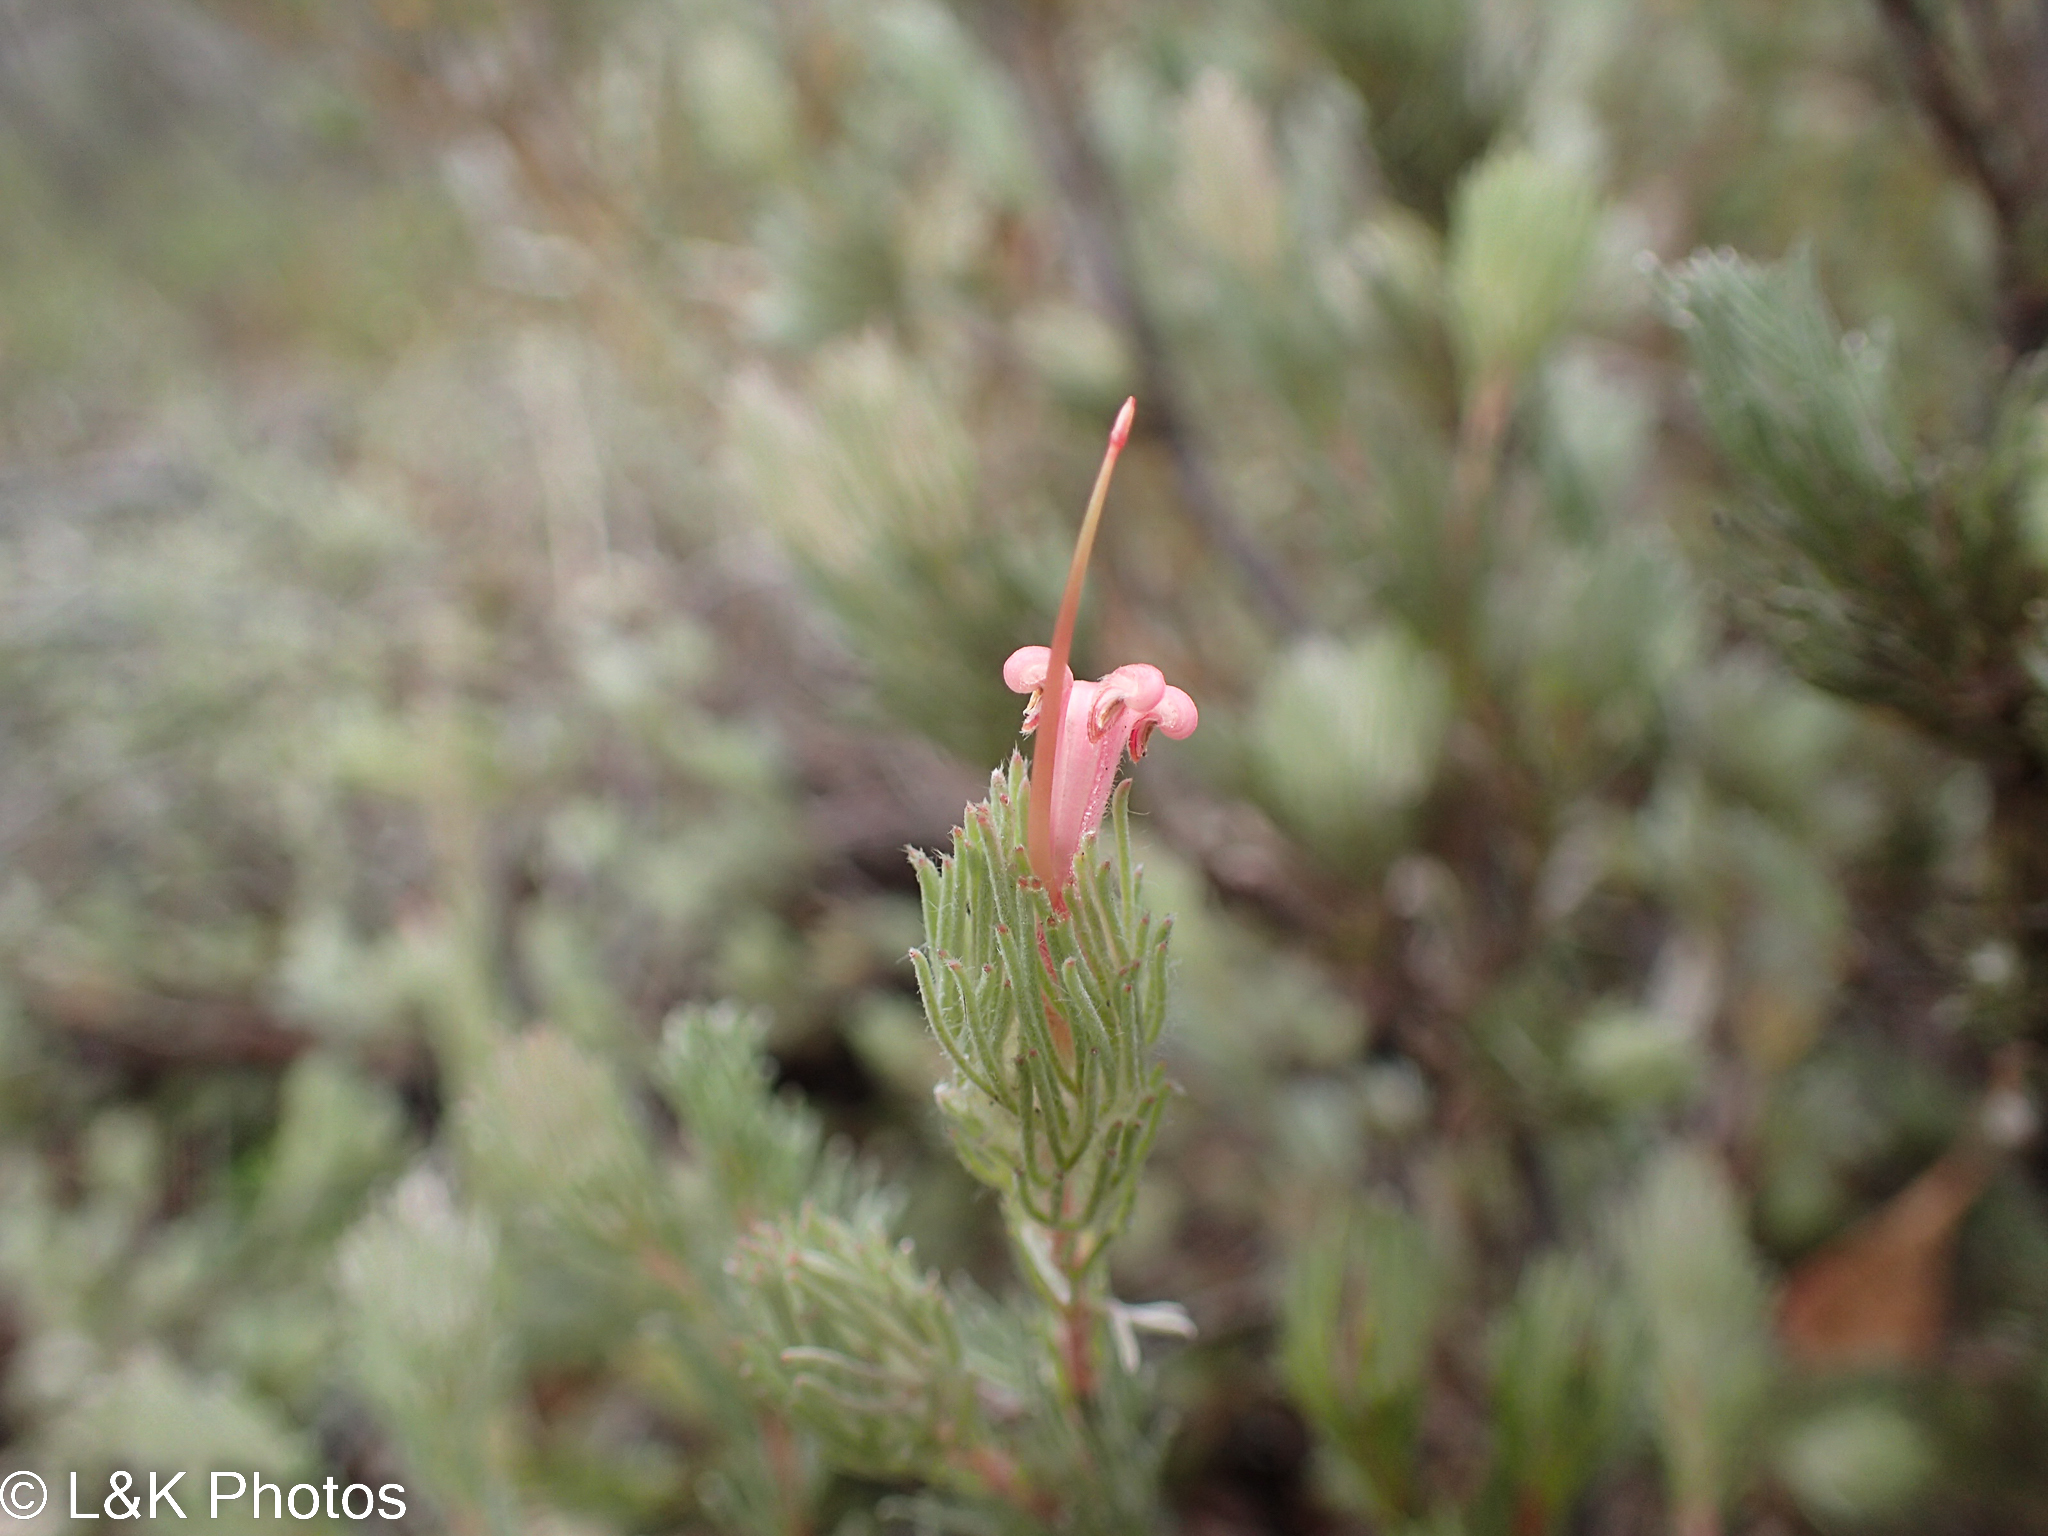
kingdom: Plantae
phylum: Tracheophyta
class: Magnoliopsida
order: Proteales
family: Proteaceae
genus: Adenanthos
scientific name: Adenanthos macropodianus
